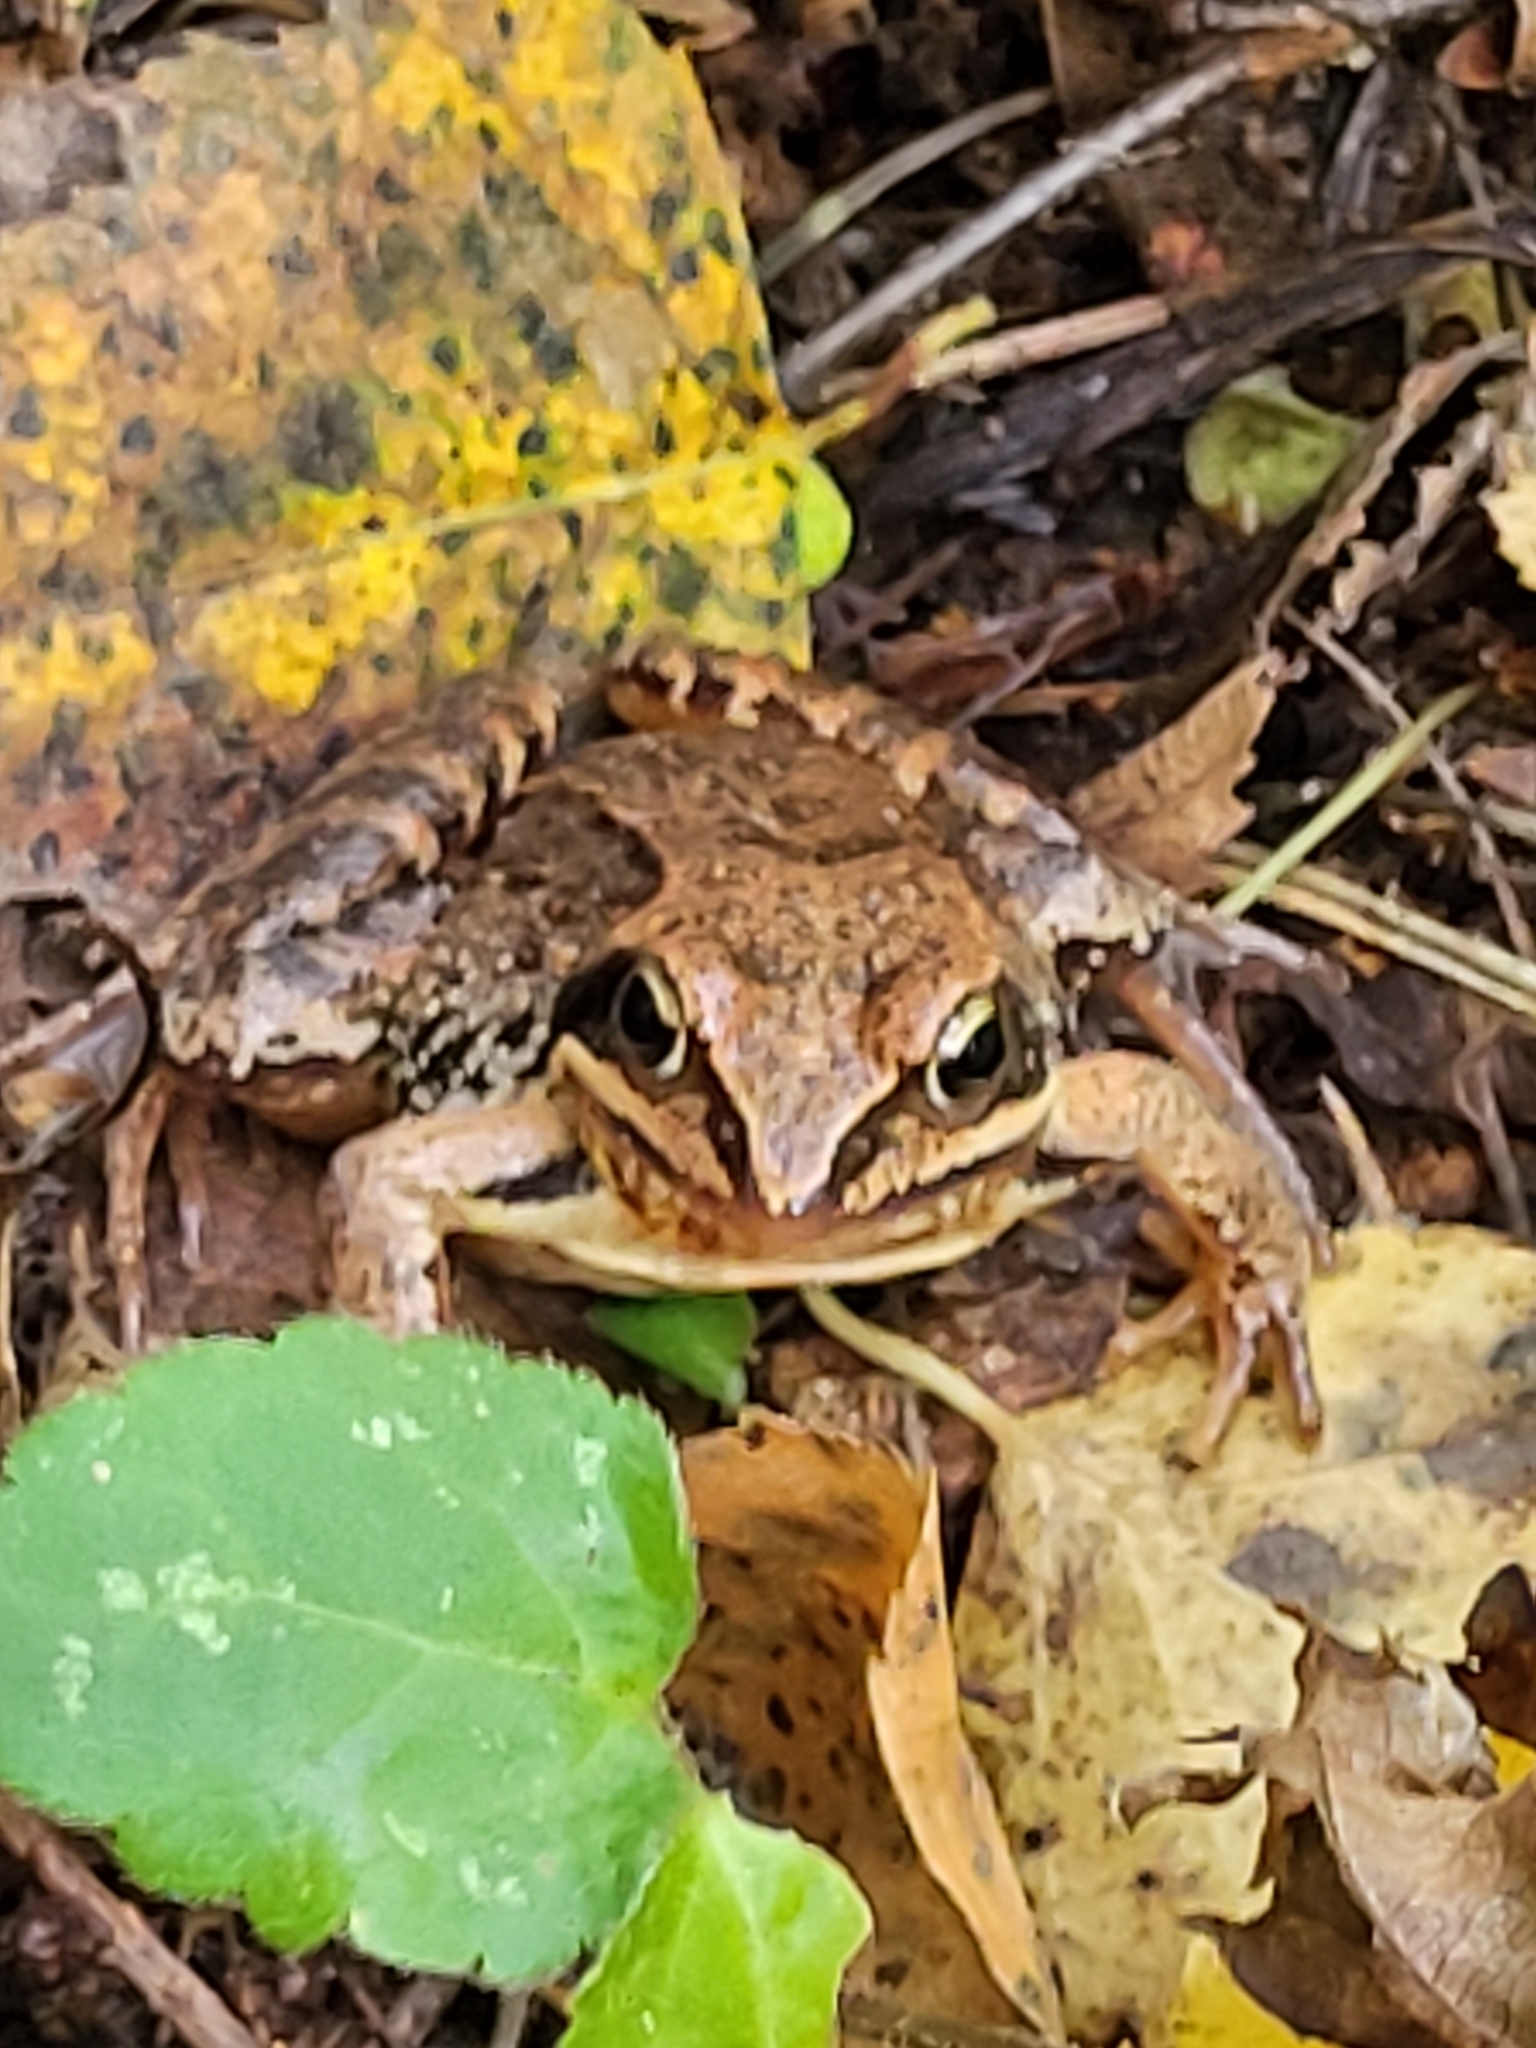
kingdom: Animalia
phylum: Chordata
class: Amphibia
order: Anura
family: Ranidae
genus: Rana
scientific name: Rana arvalis
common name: Moor frog
